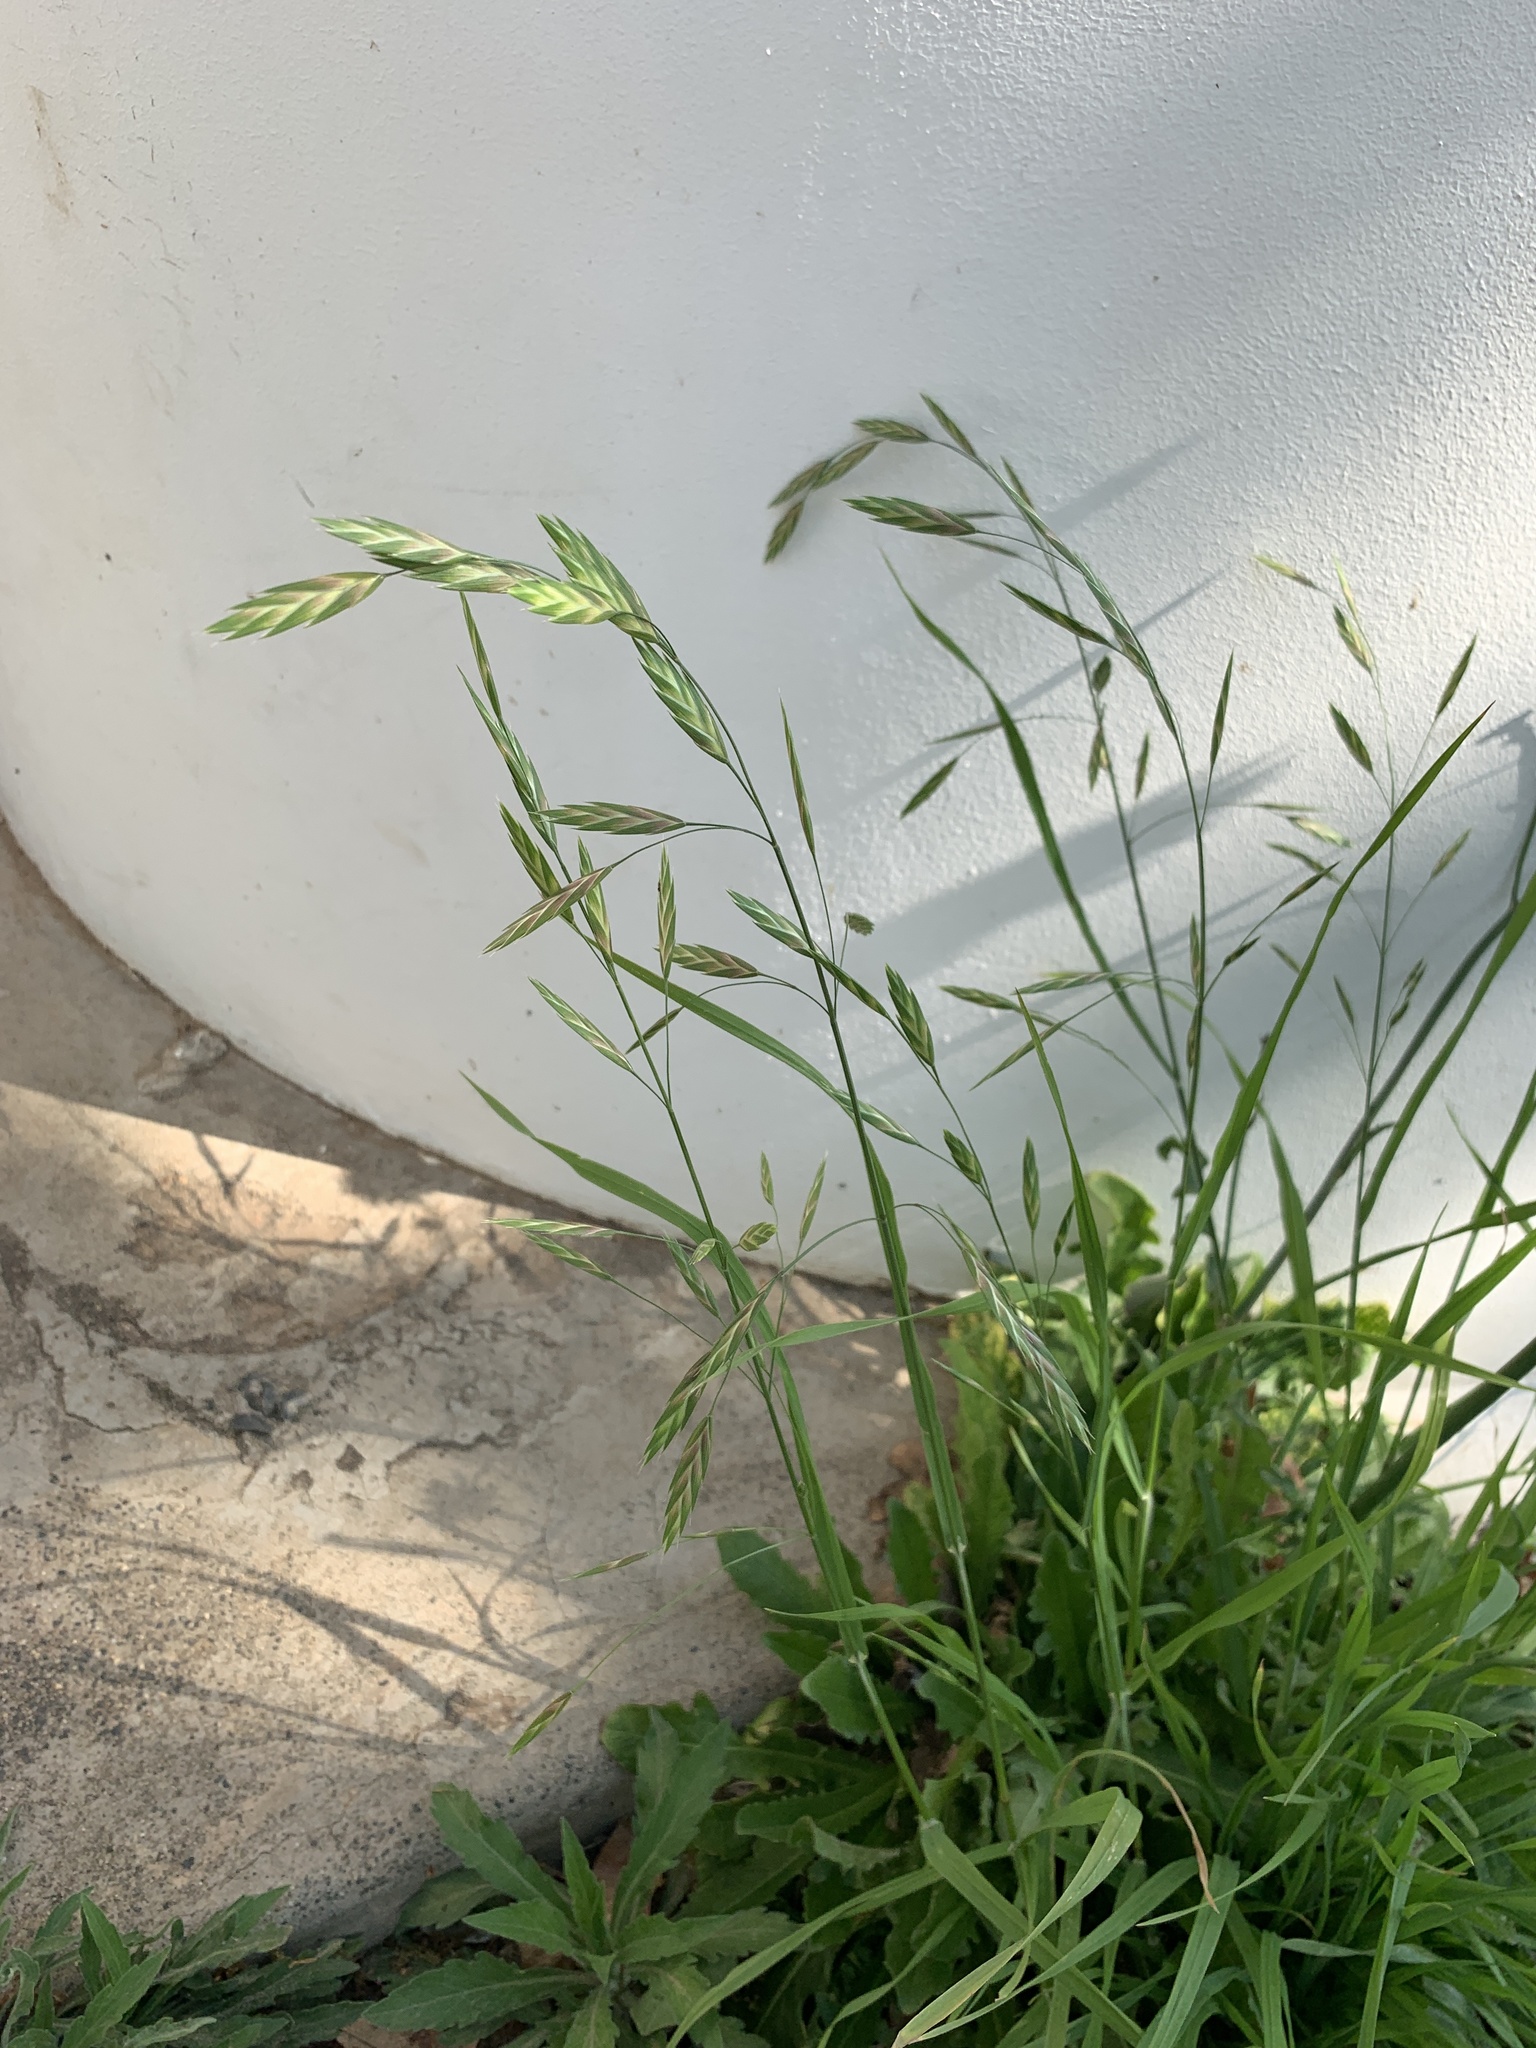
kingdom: Plantae
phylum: Tracheophyta
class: Liliopsida
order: Poales
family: Poaceae
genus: Bromus
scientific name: Bromus catharticus
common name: Rescuegrass
